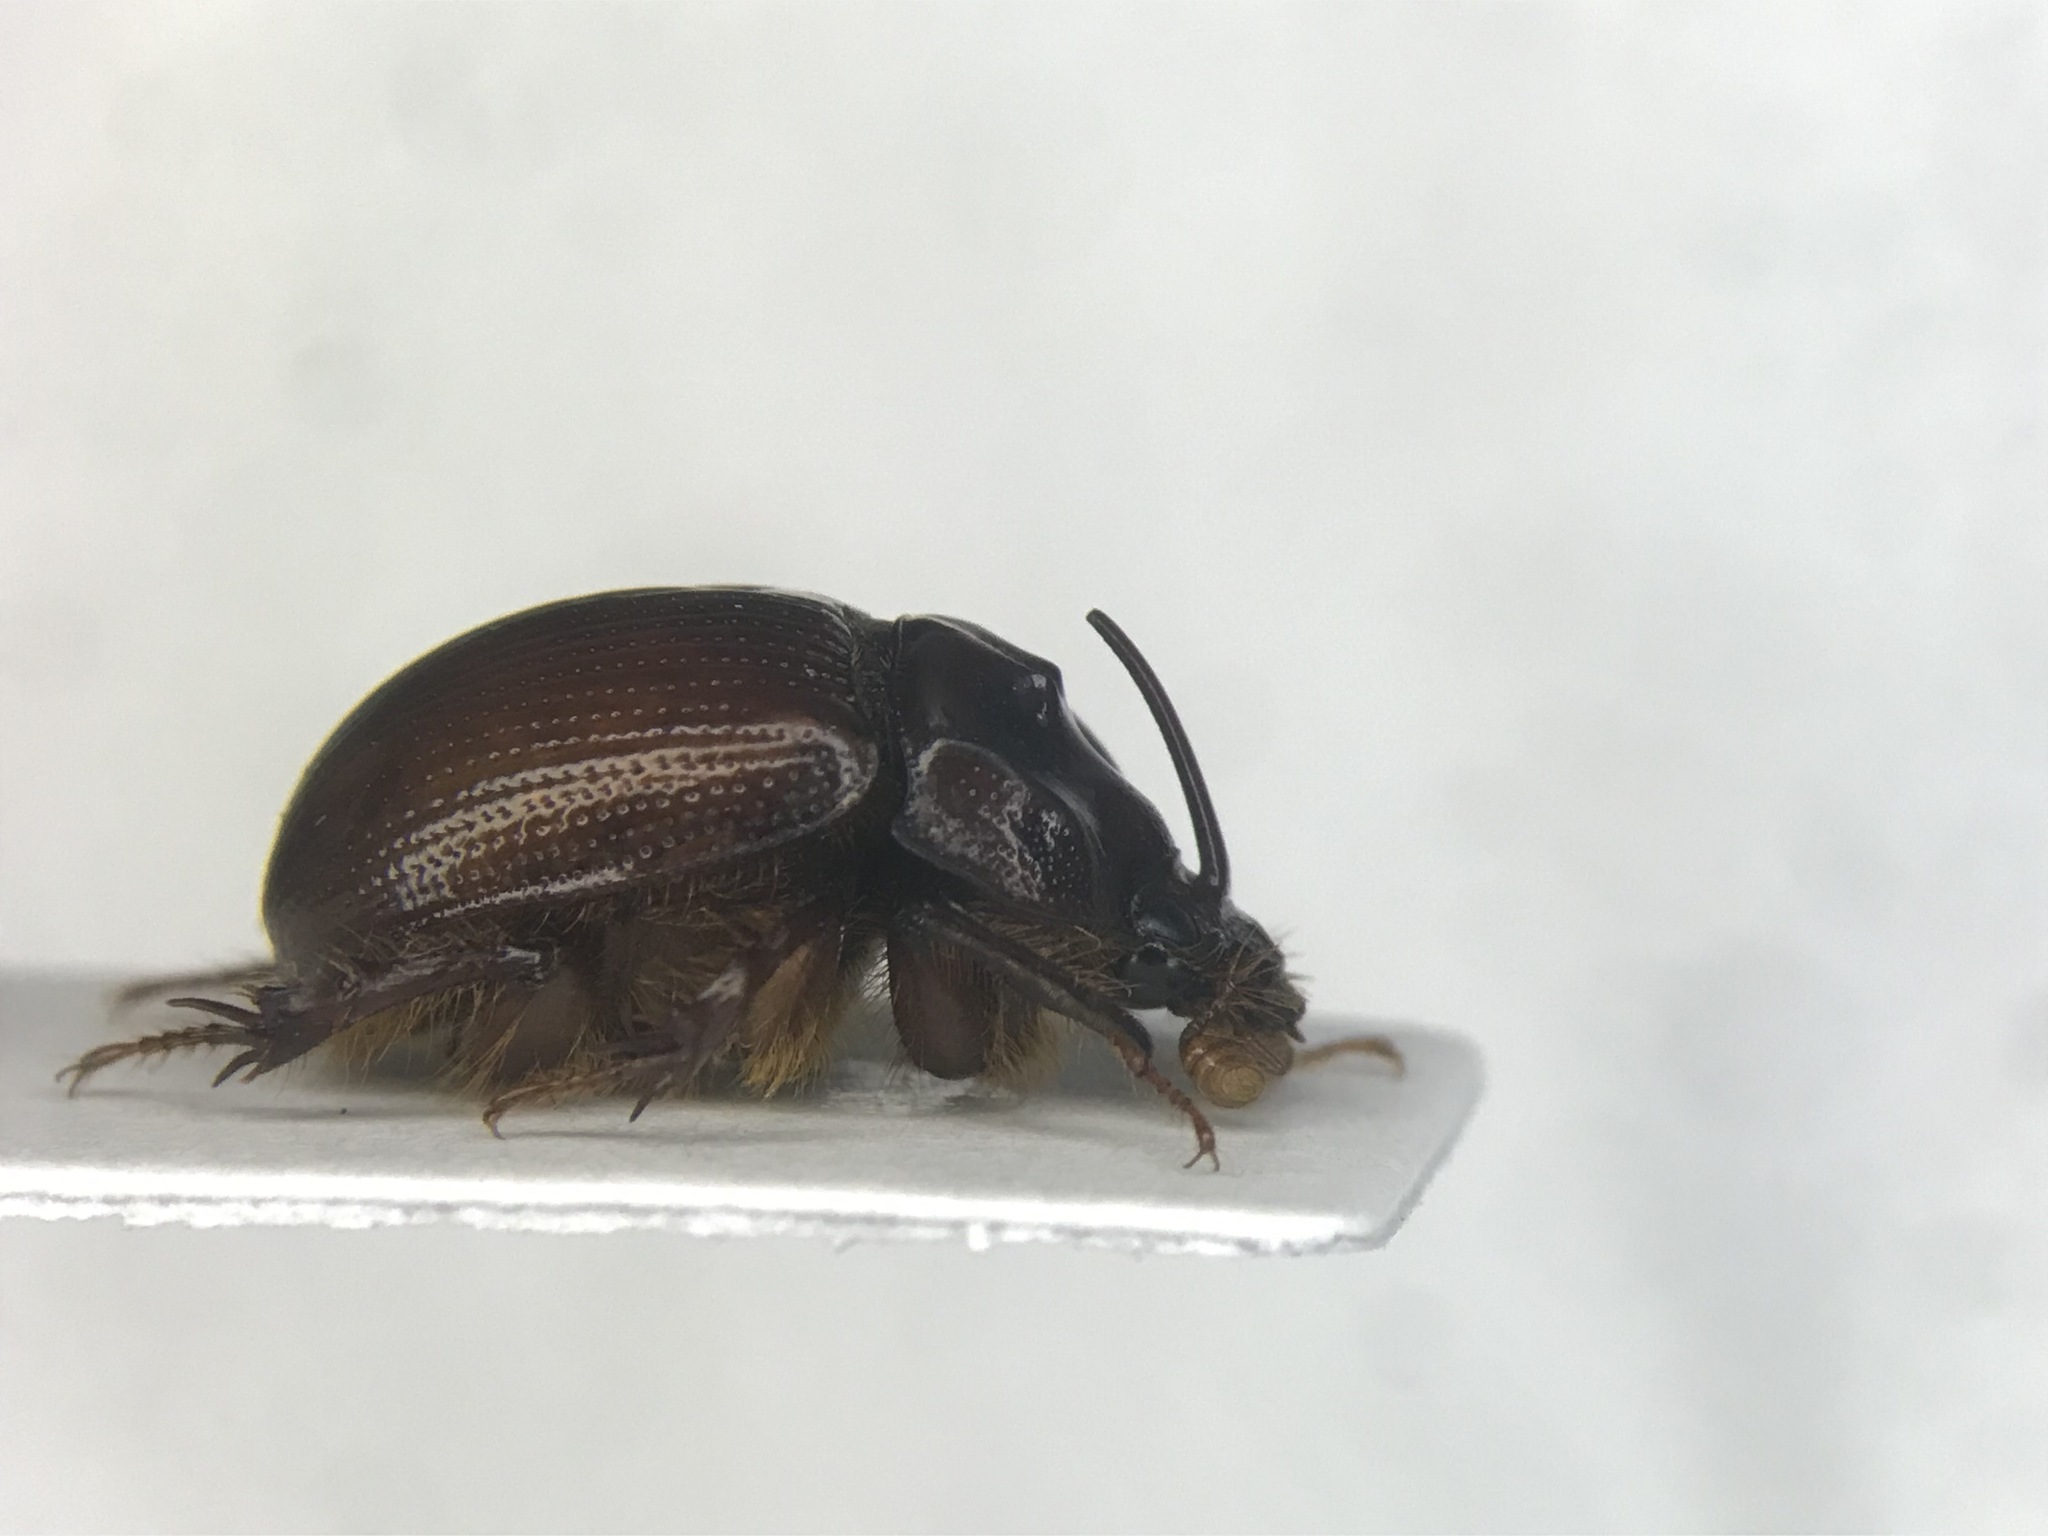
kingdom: Animalia
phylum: Arthropoda
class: Insecta
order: Coleoptera
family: Geotrupidae
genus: Odonteus
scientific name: Odonteus liebecki
